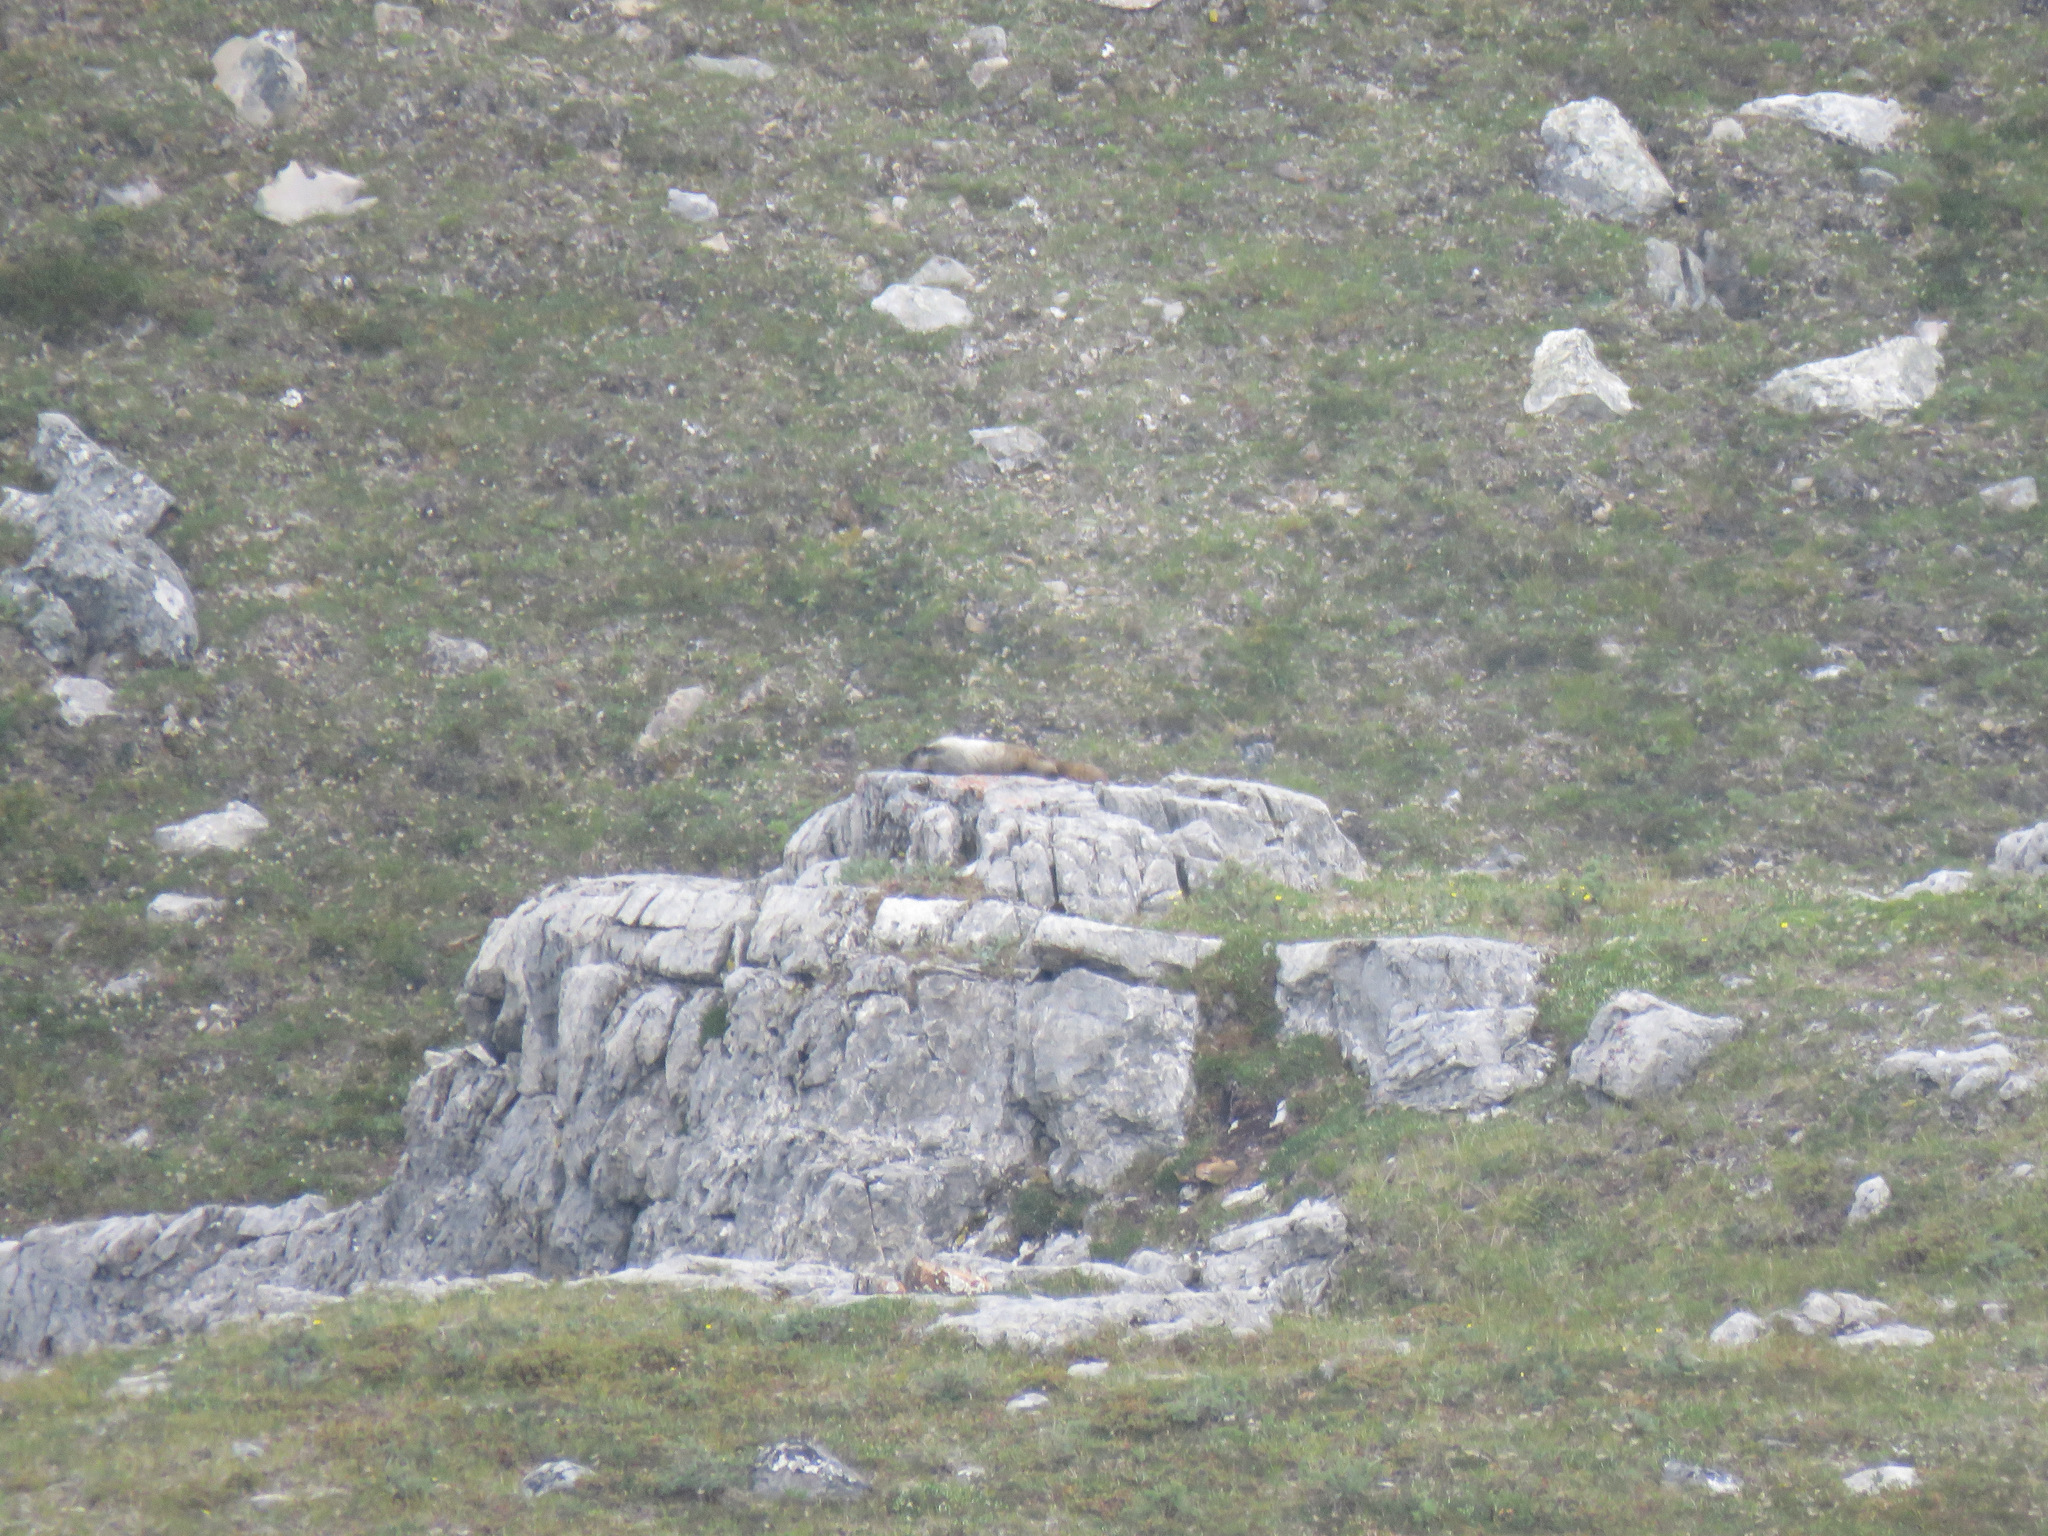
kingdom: Animalia
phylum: Chordata
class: Mammalia
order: Rodentia
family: Sciuridae
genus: Marmota
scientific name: Marmota caligata
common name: Hoary marmot
